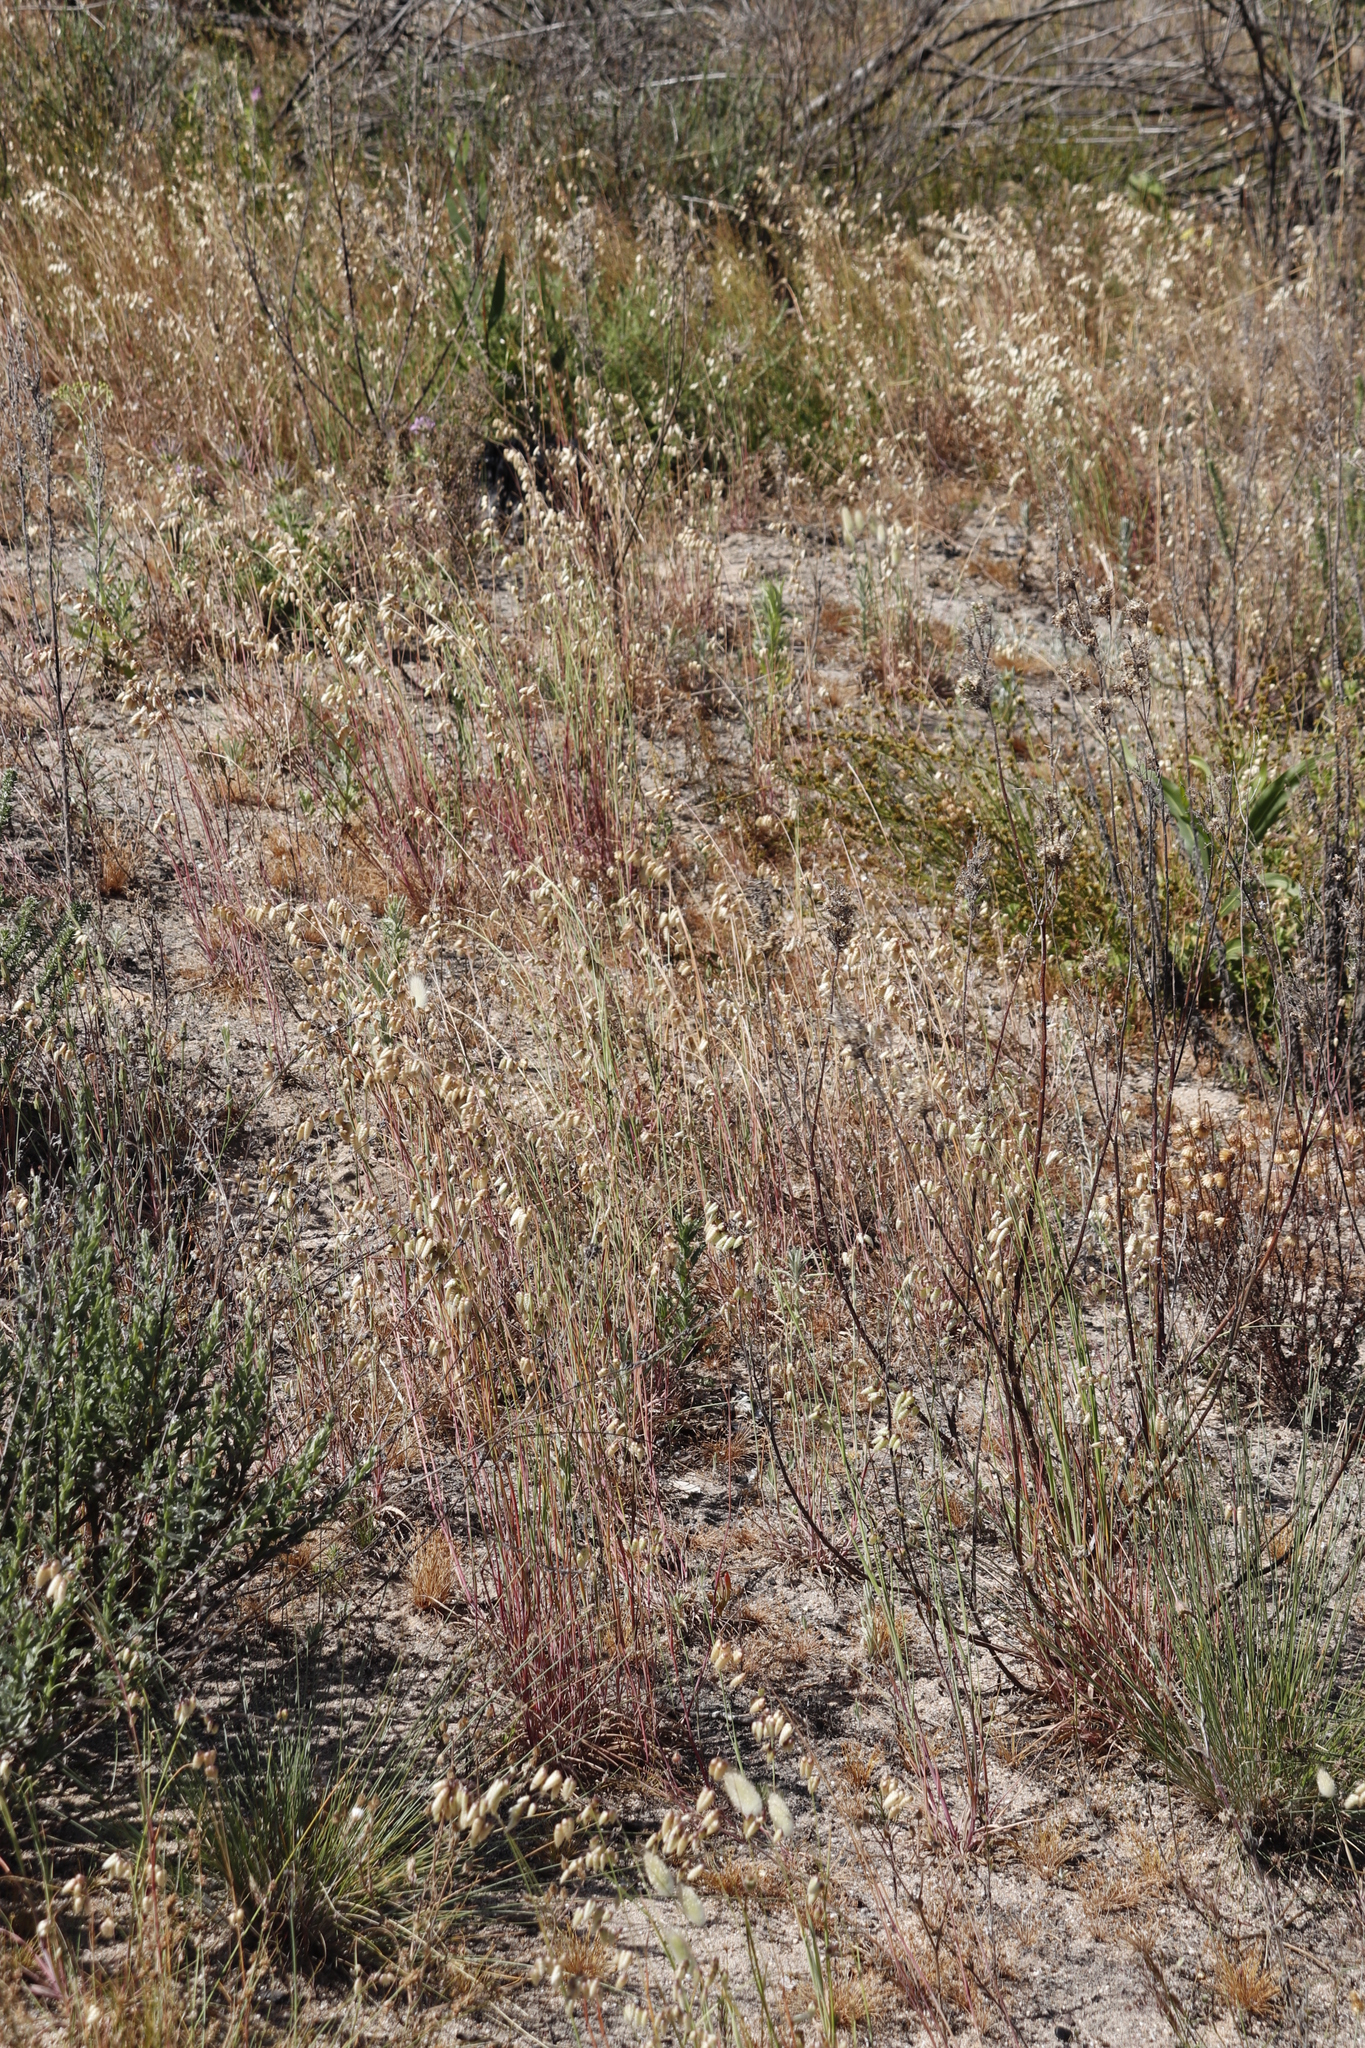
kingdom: Plantae
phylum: Tracheophyta
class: Liliopsida
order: Poales
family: Poaceae
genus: Briza
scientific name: Briza maxima
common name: Big quakinggrass
